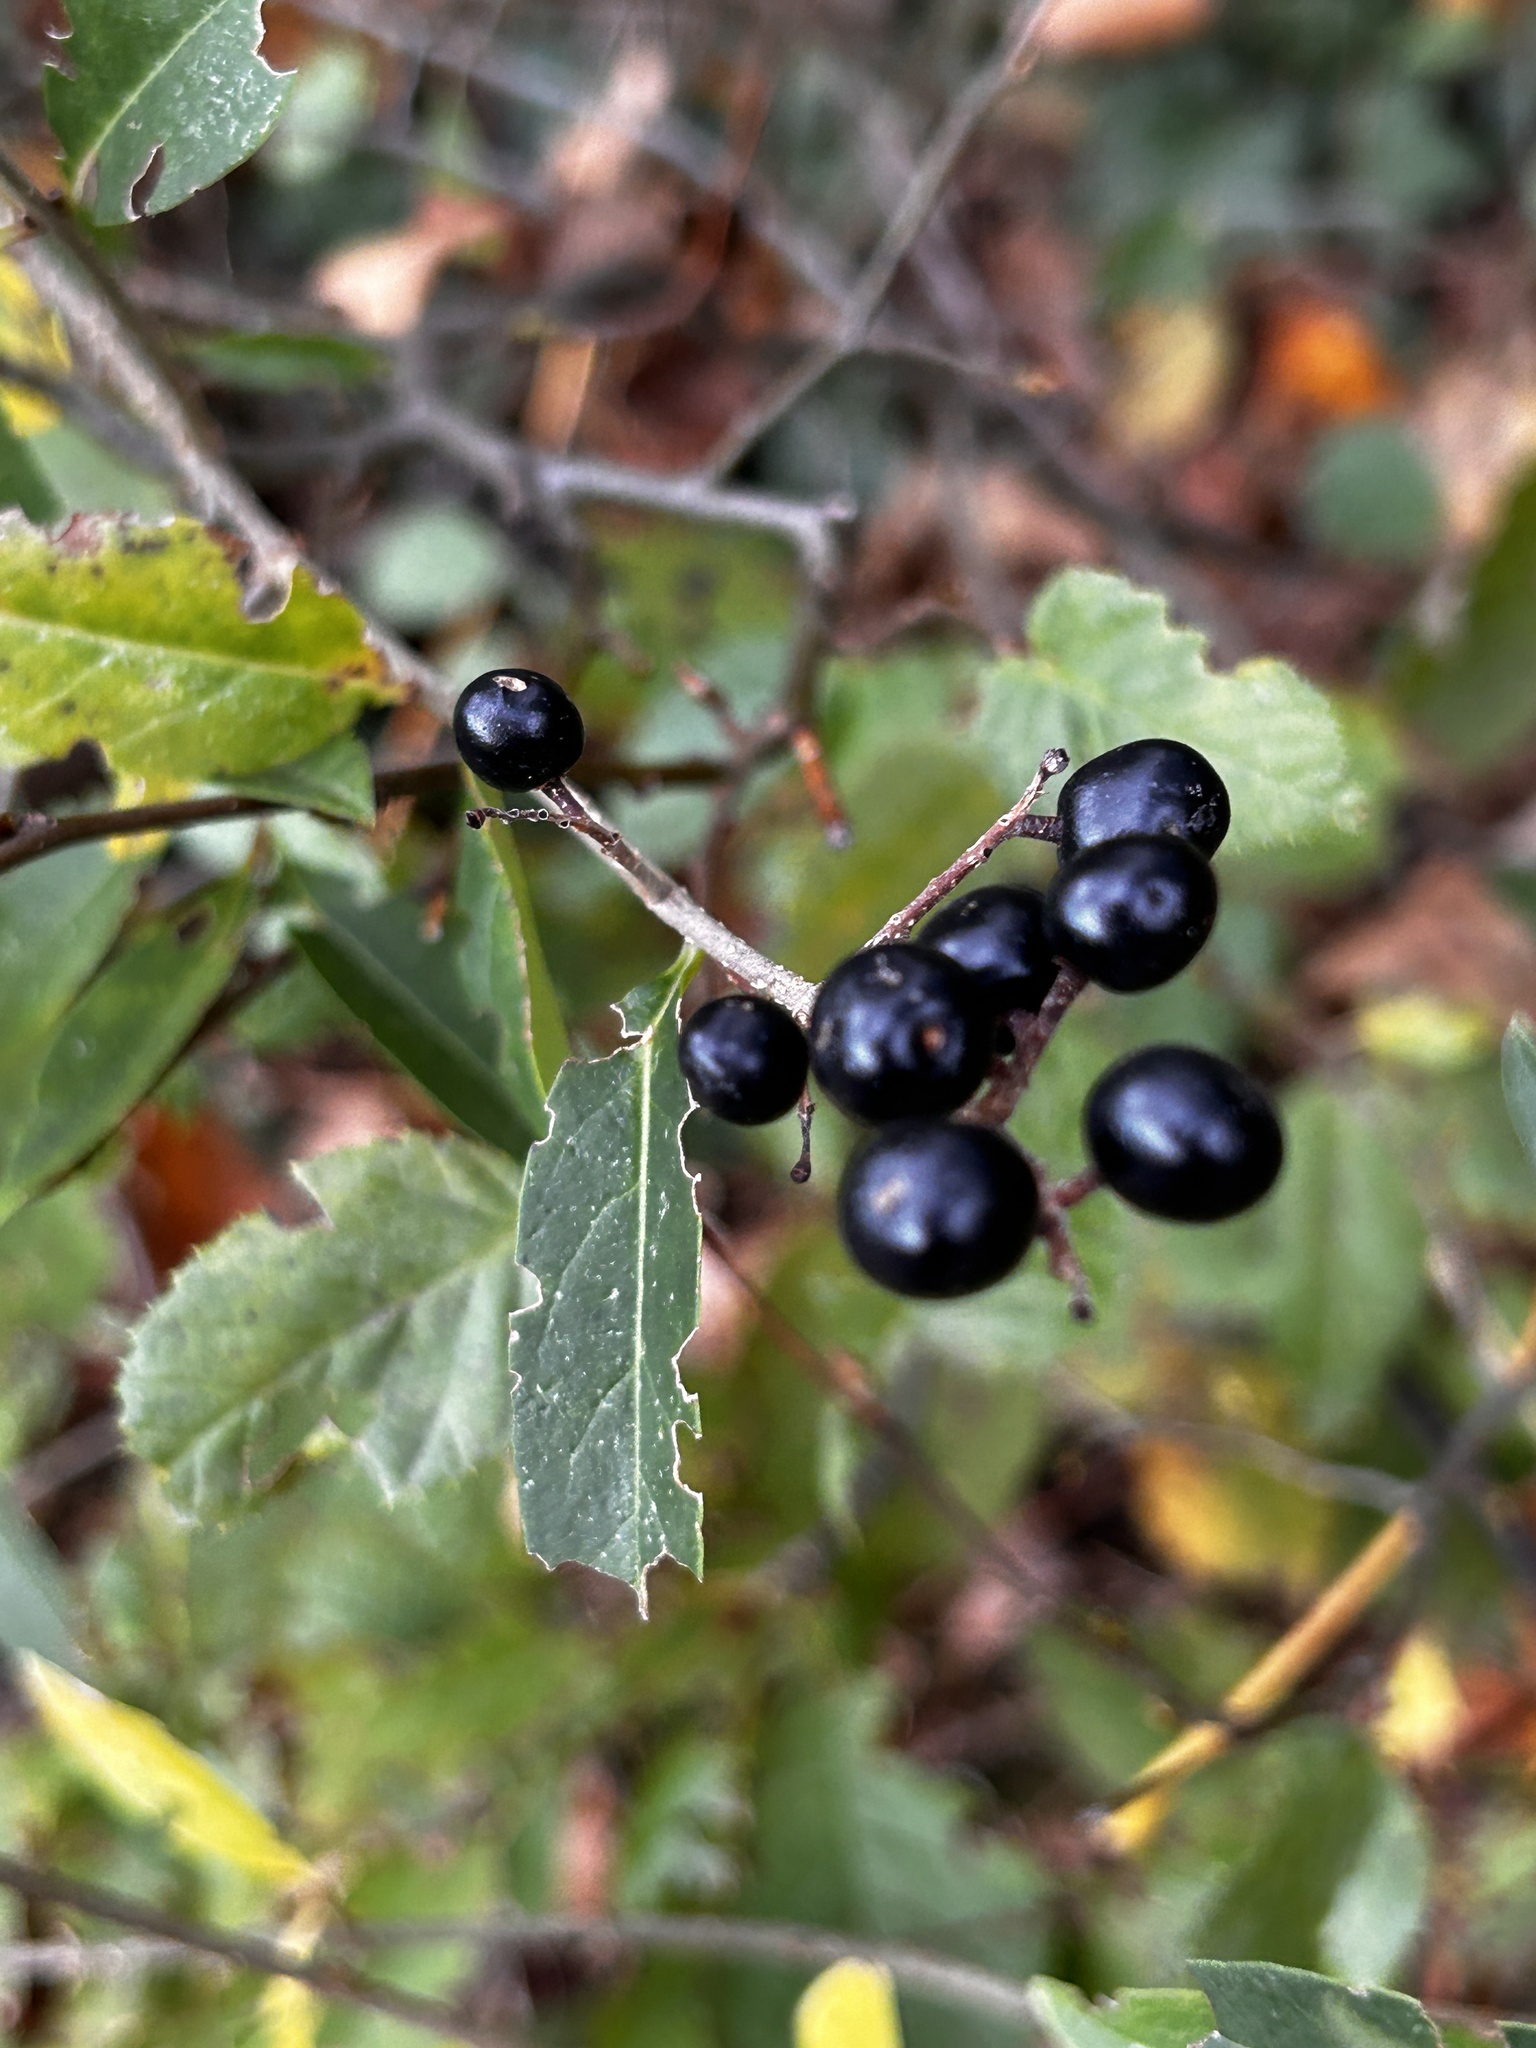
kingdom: Plantae
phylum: Tracheophyta
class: Magnoliopsida
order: Lamiales
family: Oleaceae
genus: Ligustrum
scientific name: Ligustrum vulgare
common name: Wild privet
